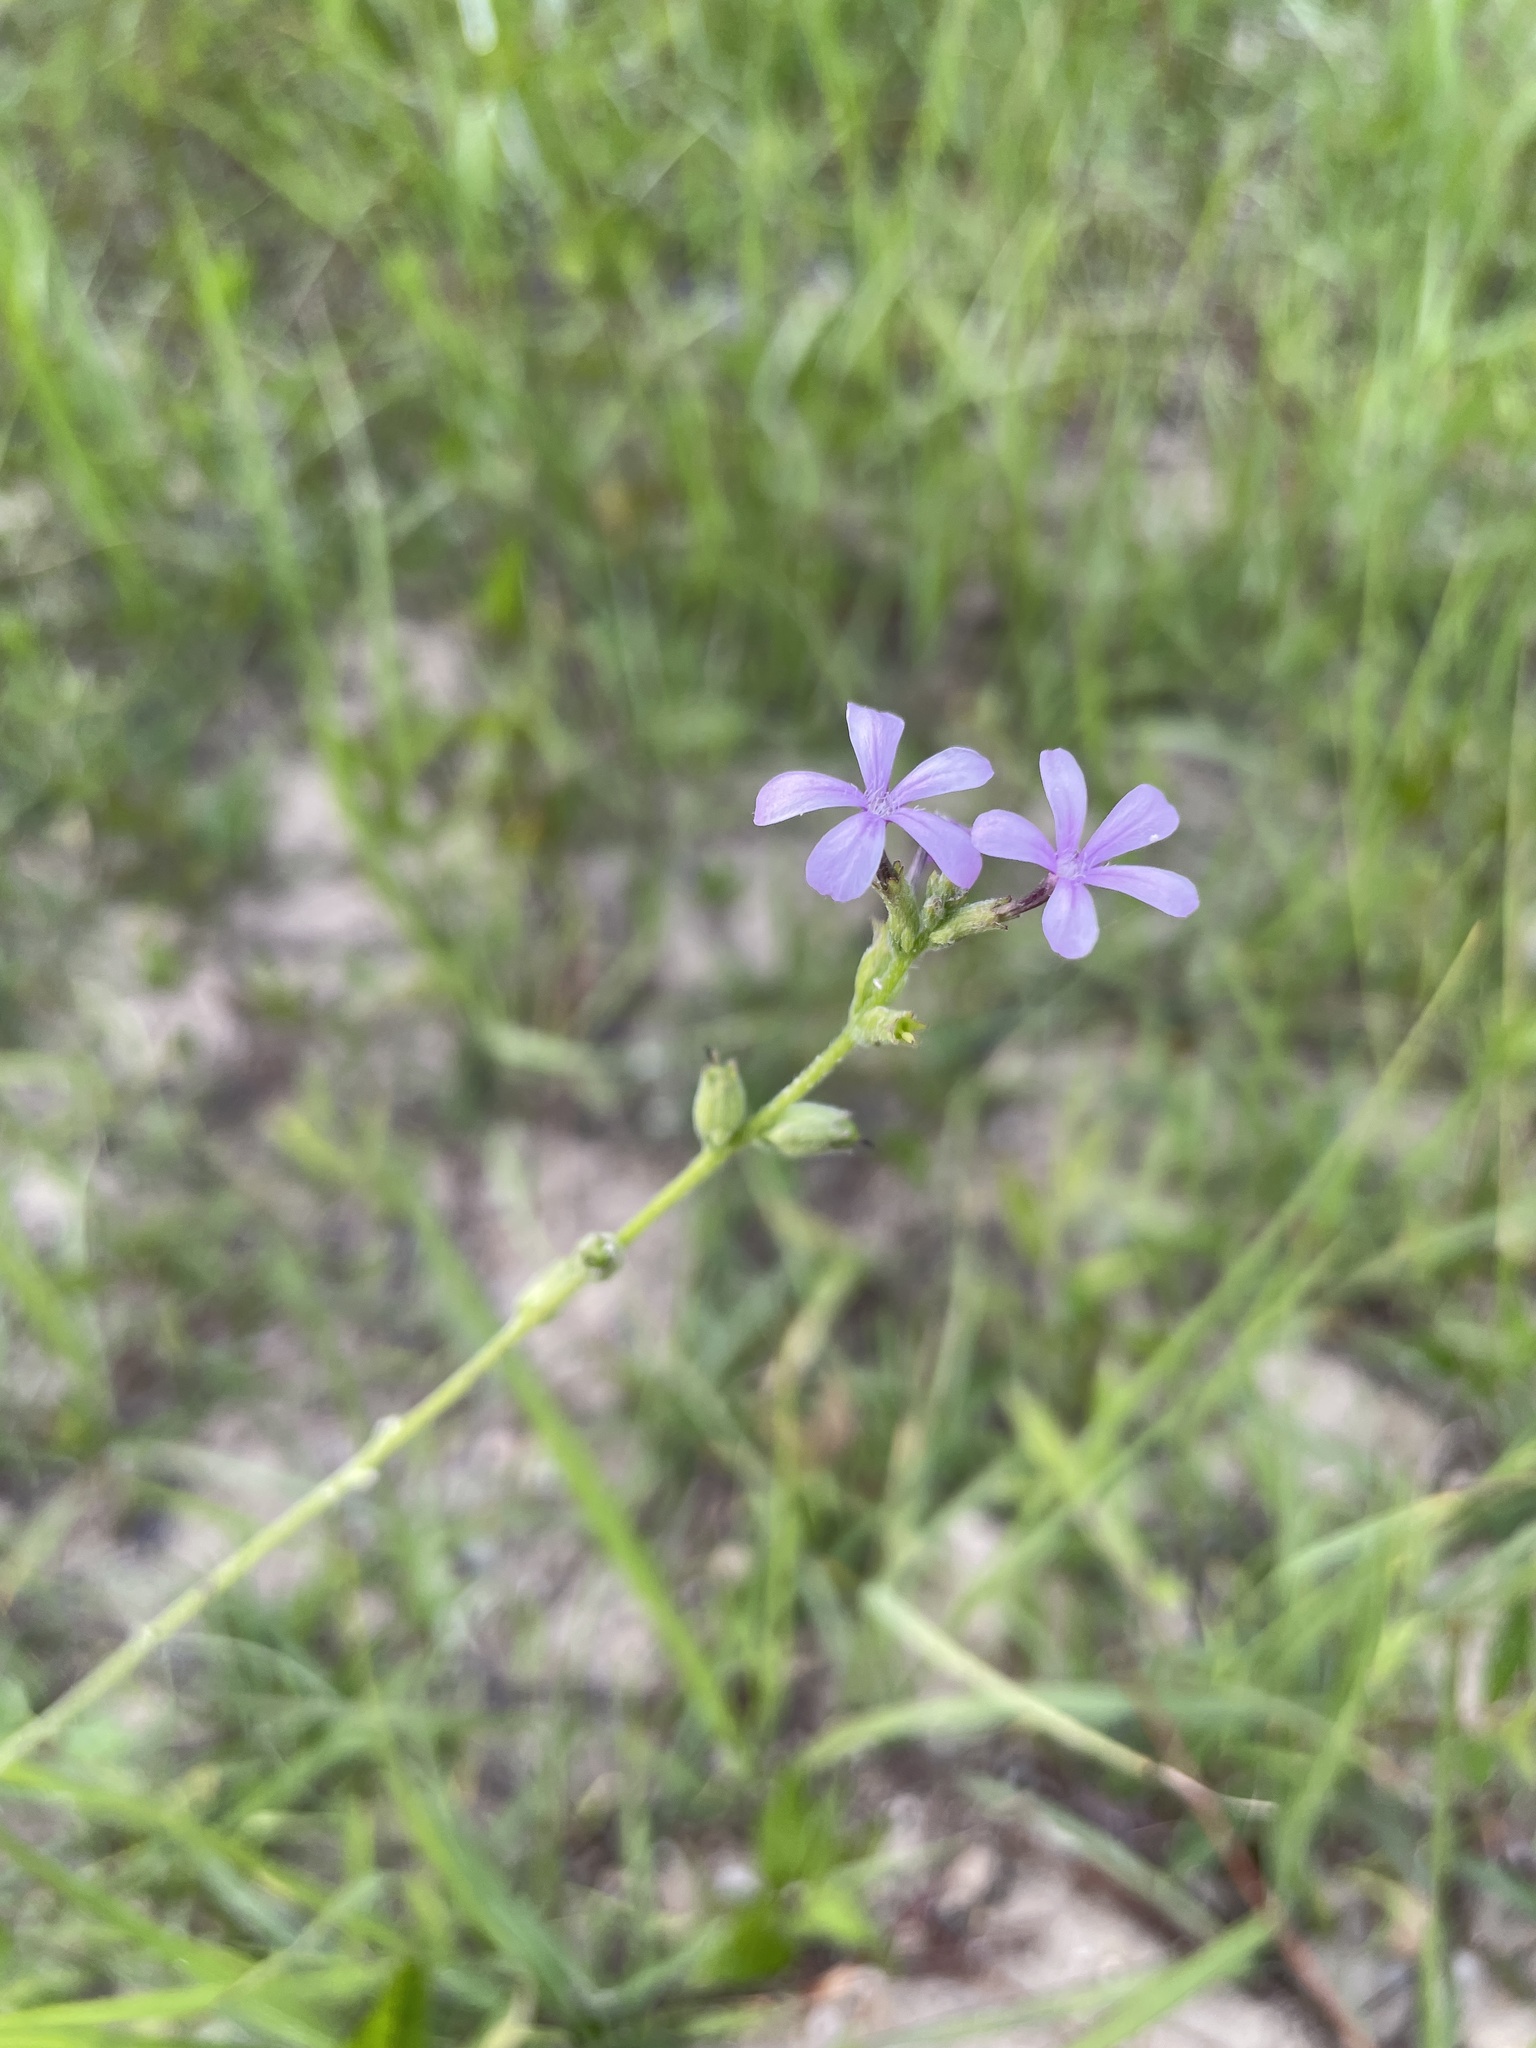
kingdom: Plantae
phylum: Tracheophyta
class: Magnoliopsida
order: Lamiales
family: Orobanchaceae
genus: Buchnera
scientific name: Buchnera floridana
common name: Florida bluehearts
